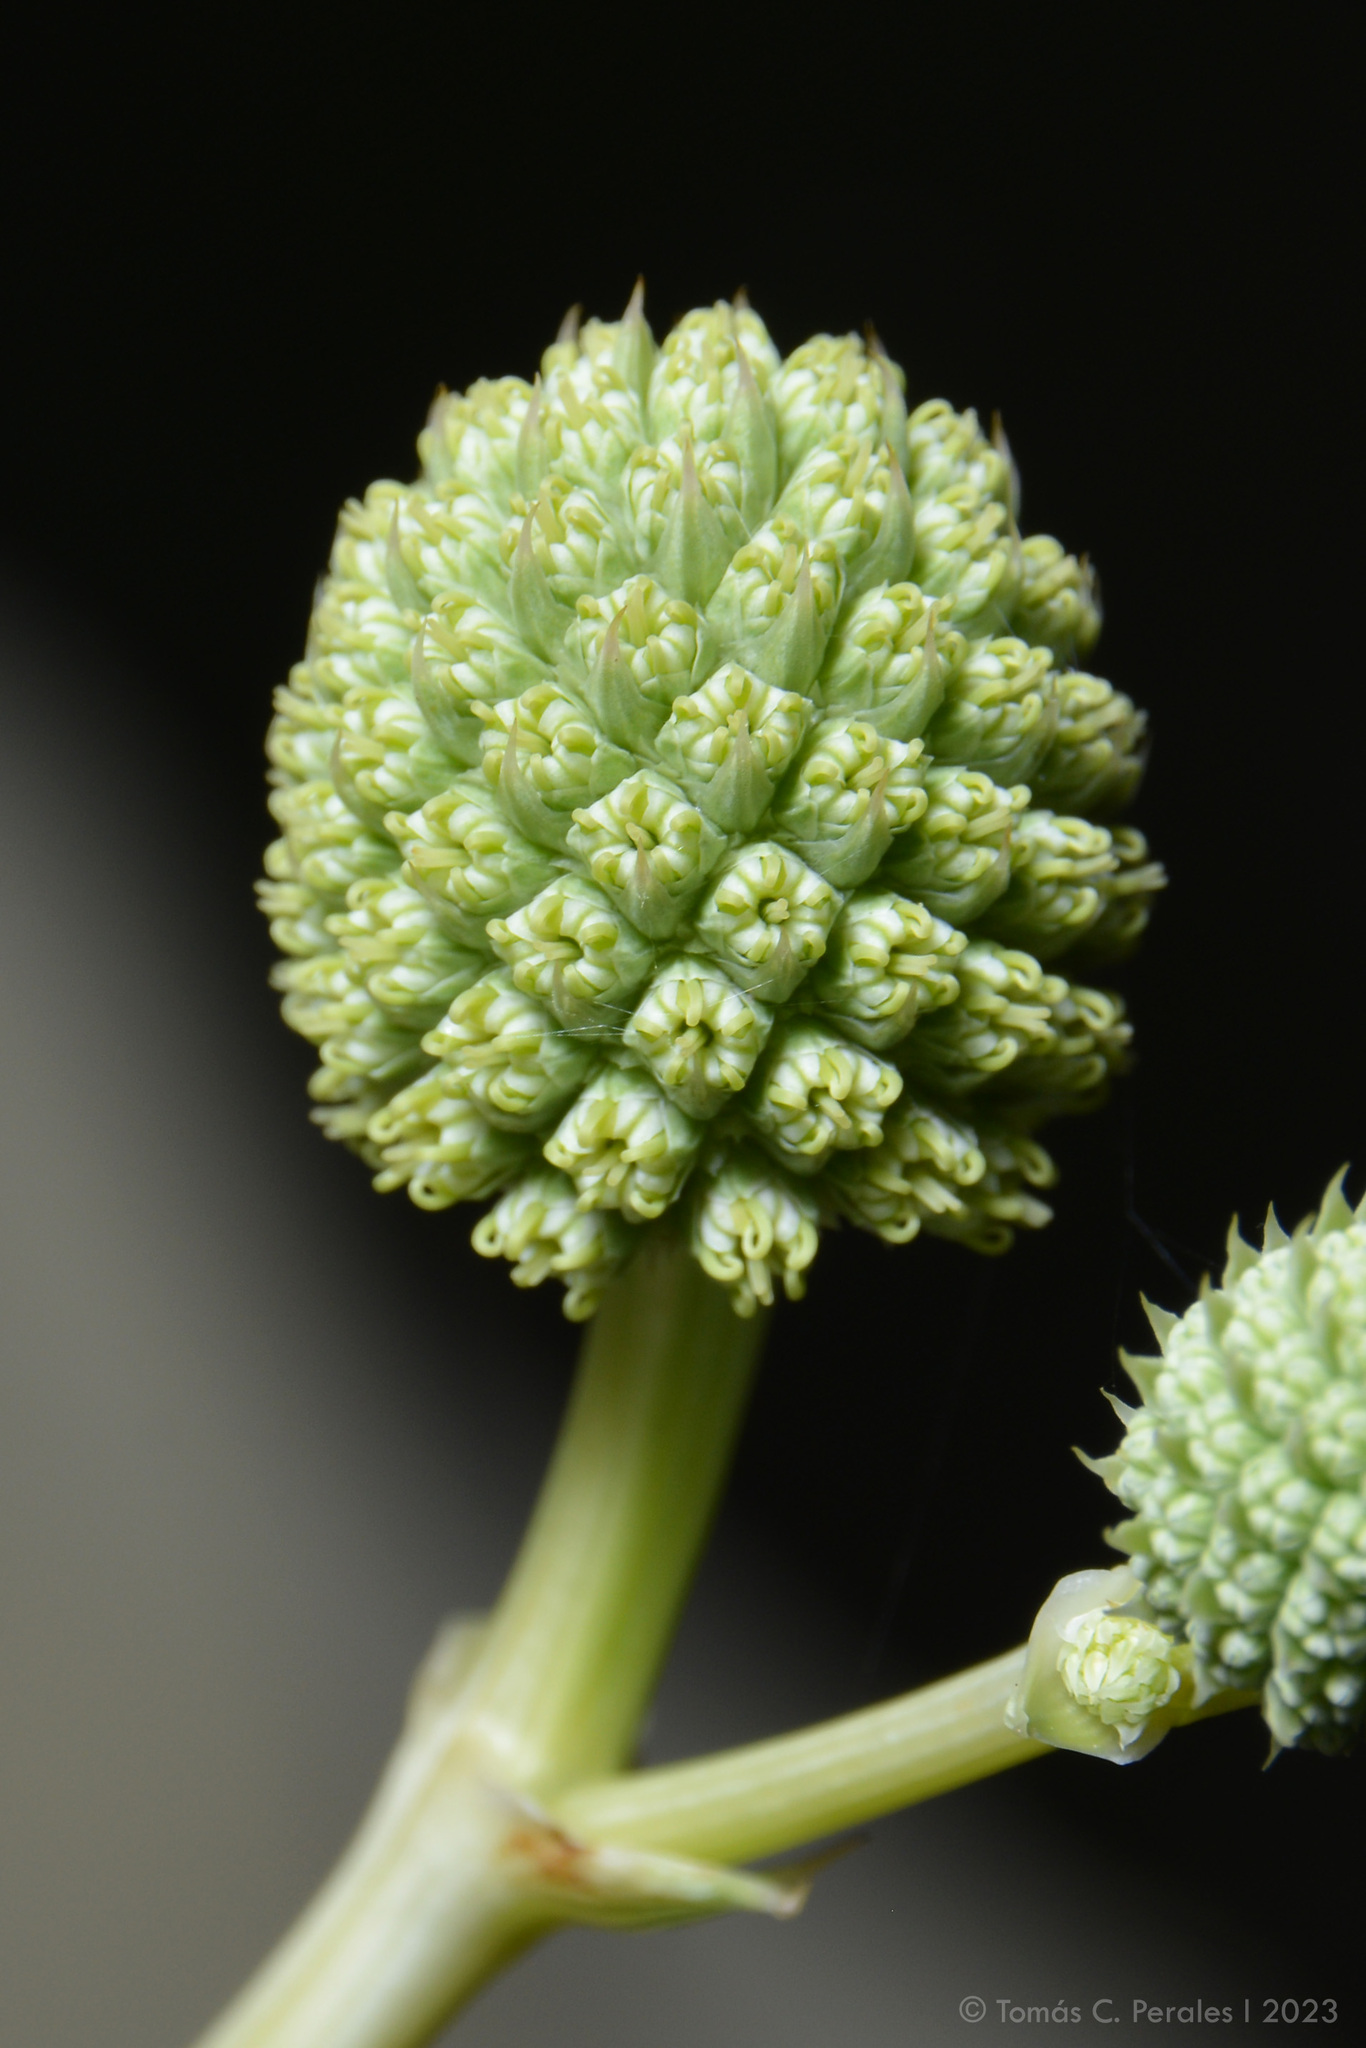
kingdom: Plantae
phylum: Tracheophyta
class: Magnoliopsida
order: Apiales
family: Apiaceae
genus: Eryngium
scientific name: Eryngium horridum
